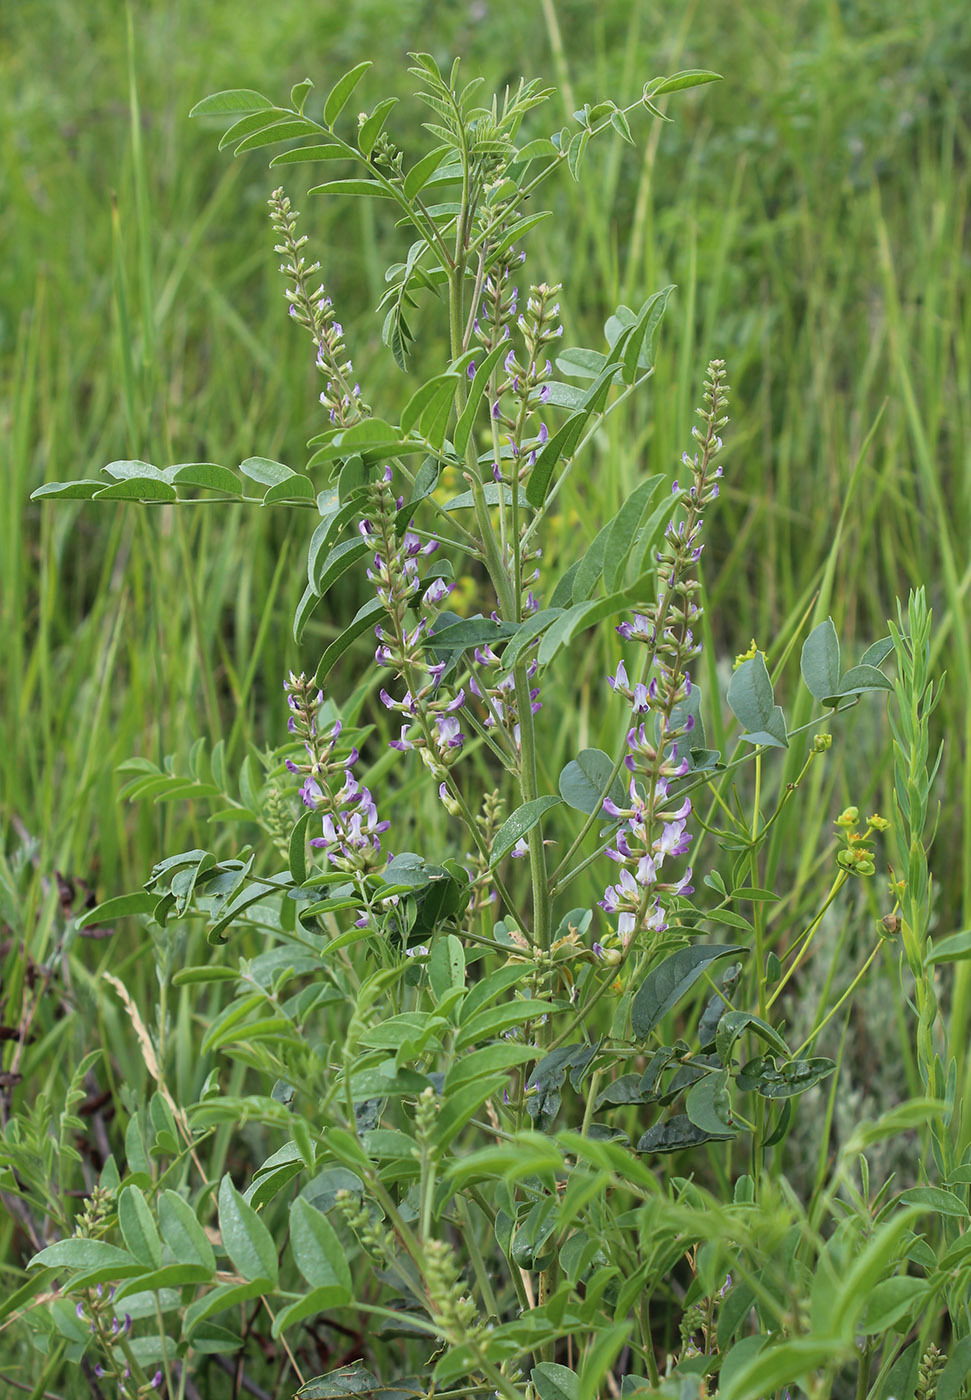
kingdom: Plantae
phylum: Tracheophyta
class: Magnoliopsida
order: Fabales
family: Fabaceae
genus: Glycyrrhiza
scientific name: Glycyrrhiza glabra
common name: Liquorice
